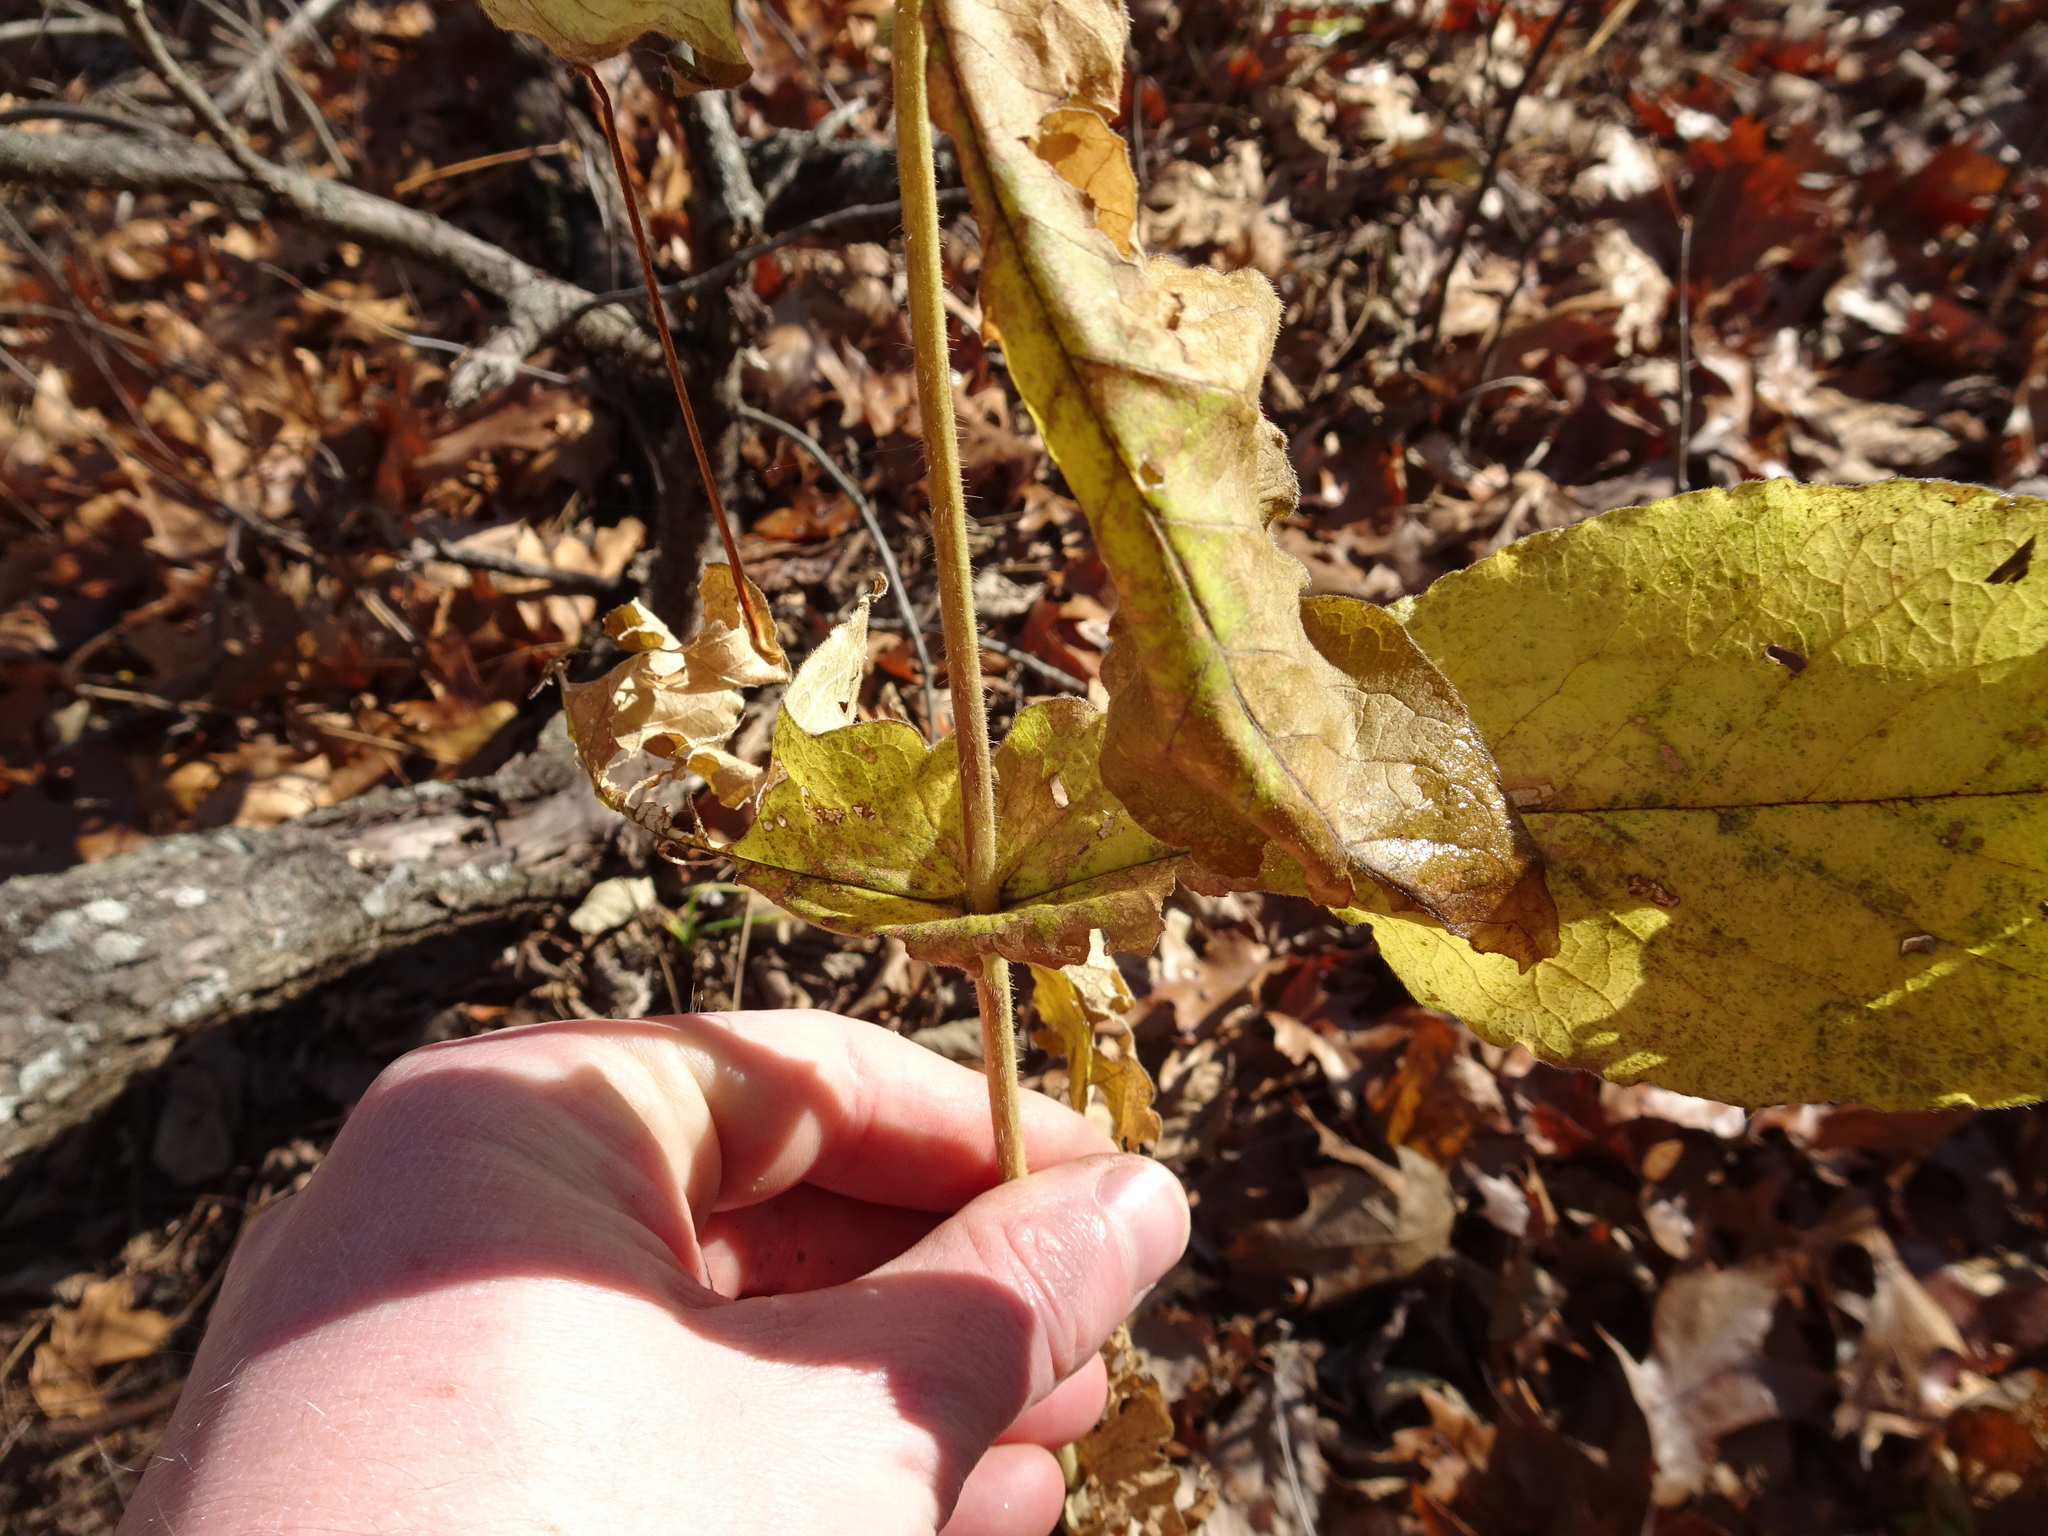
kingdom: Plantae
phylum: Tracheophyta
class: Magnoliopsida
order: Dipsacales
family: Caprifoliaceae
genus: Triosteum
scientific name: Triosteum perfoliatum
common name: Common horse-gentian
